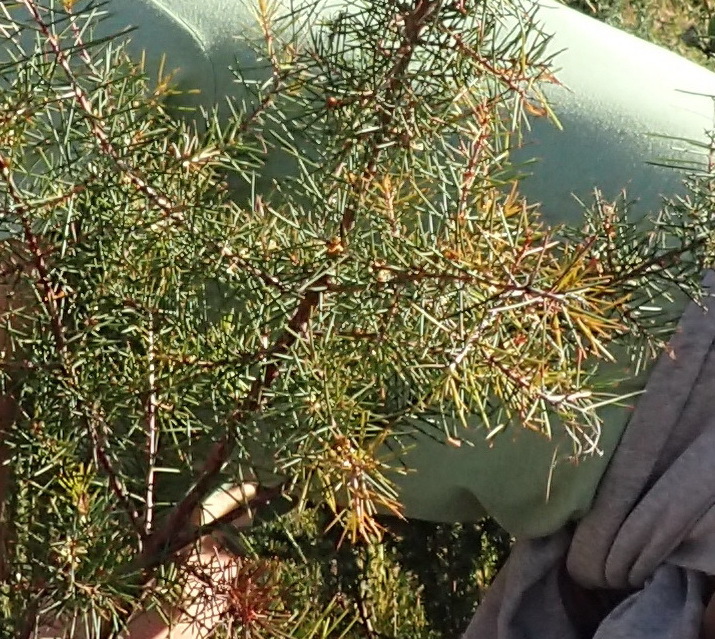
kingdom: Plantae
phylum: Tracheophyta
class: Magnoliopsida
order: Proteales
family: Proteaceae
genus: Hakea
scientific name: Hakea sericea
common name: Needle bush
